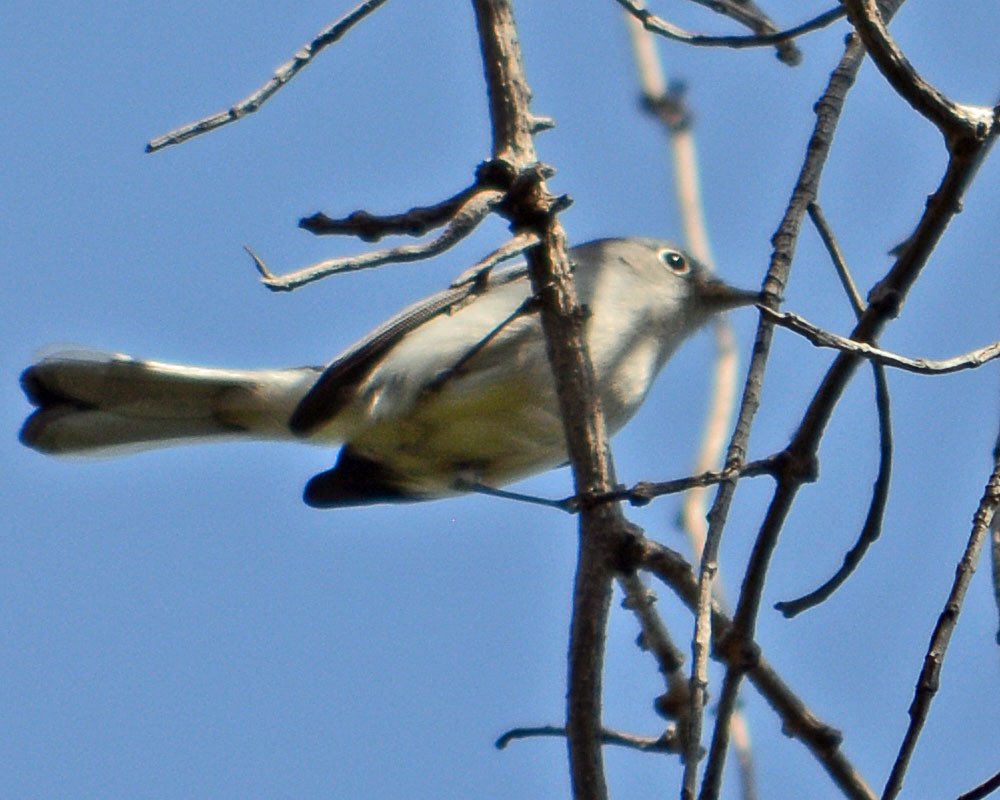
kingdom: Animalia
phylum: Chordata
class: Aves
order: Passeriformes
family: Polioptilidae
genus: Polioptila
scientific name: Polioptila caerulea
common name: Blue-gray gnatcatcher
